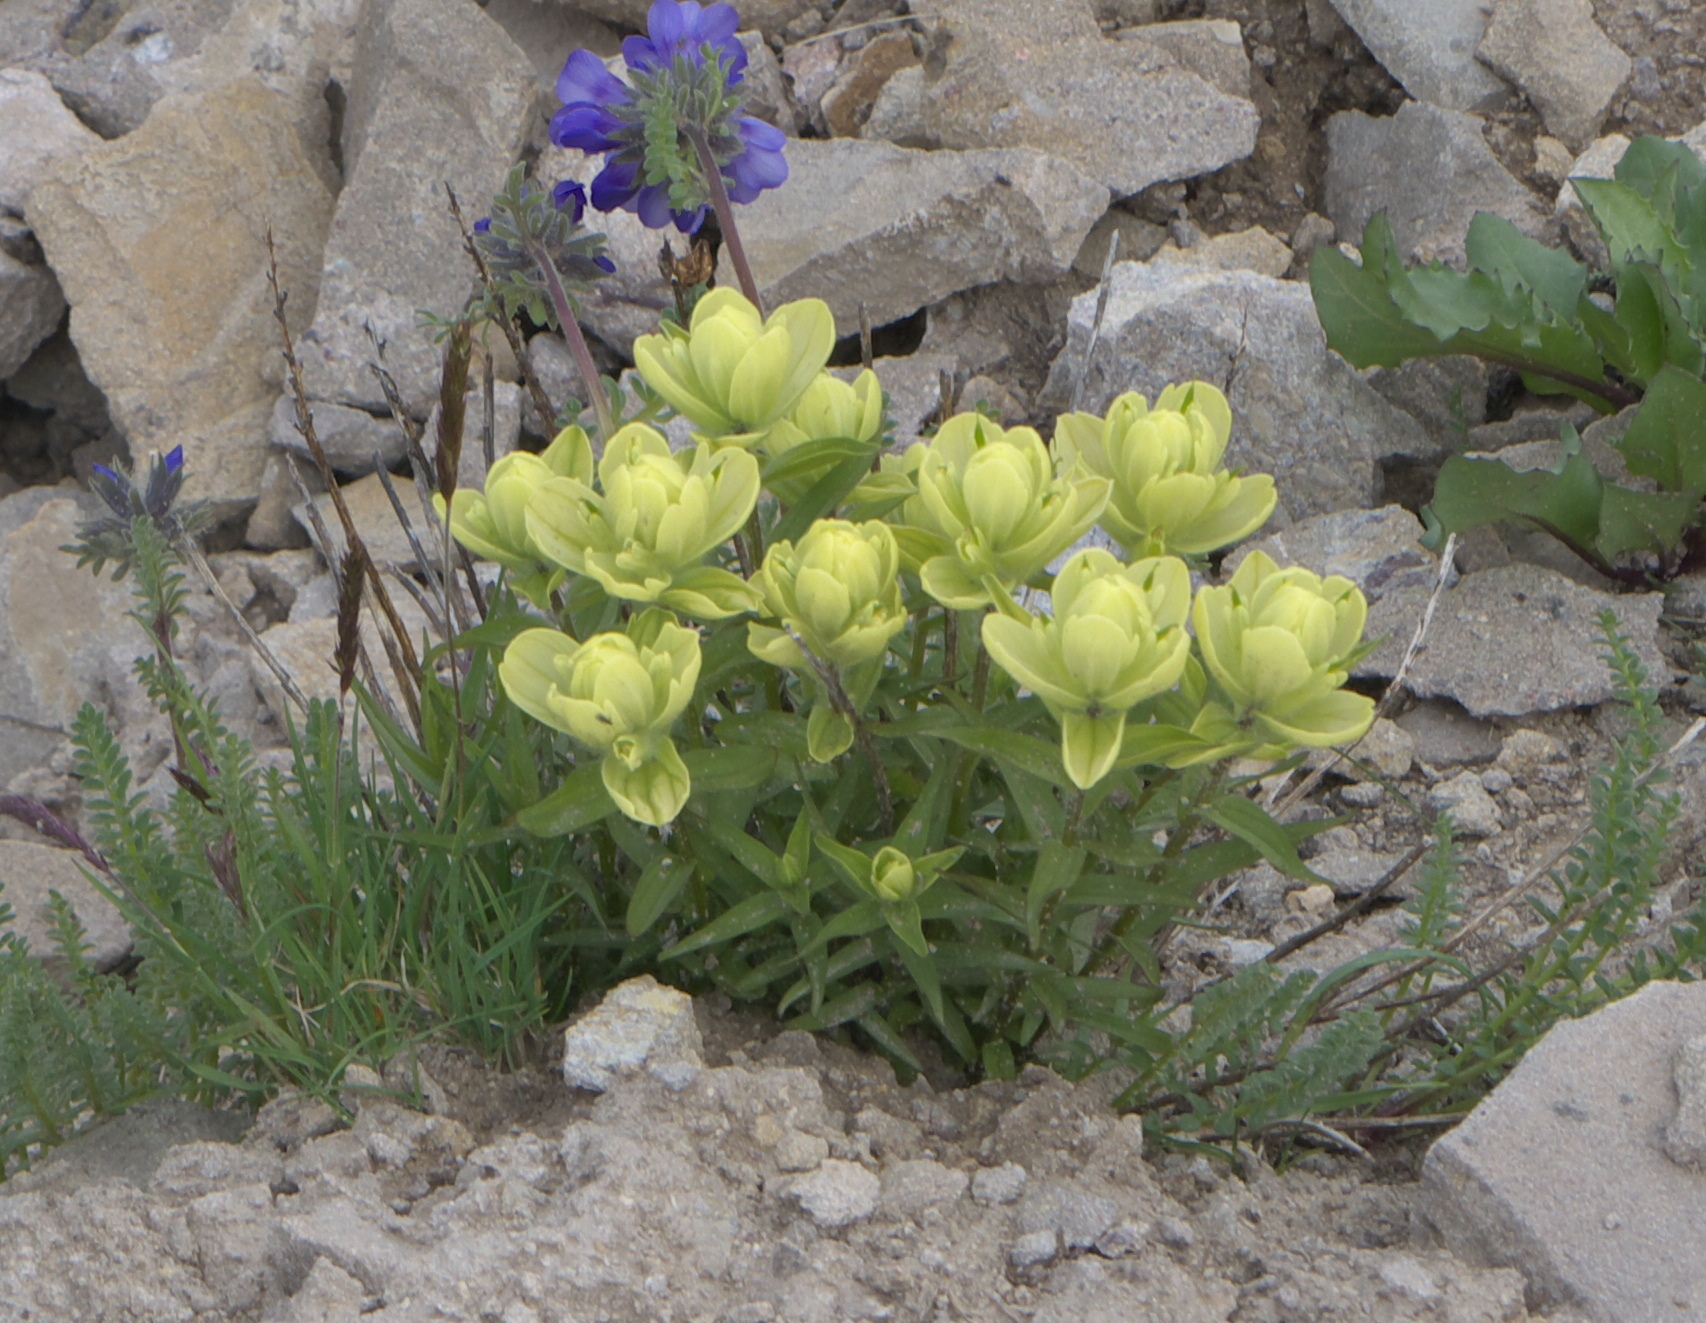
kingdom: Plantae
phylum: Tracheophyta
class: Magnoliopsida
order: Lamiales
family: Orobanchaceae
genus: Castilleja
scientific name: Castilleja occidentalis
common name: Western paintbrush
